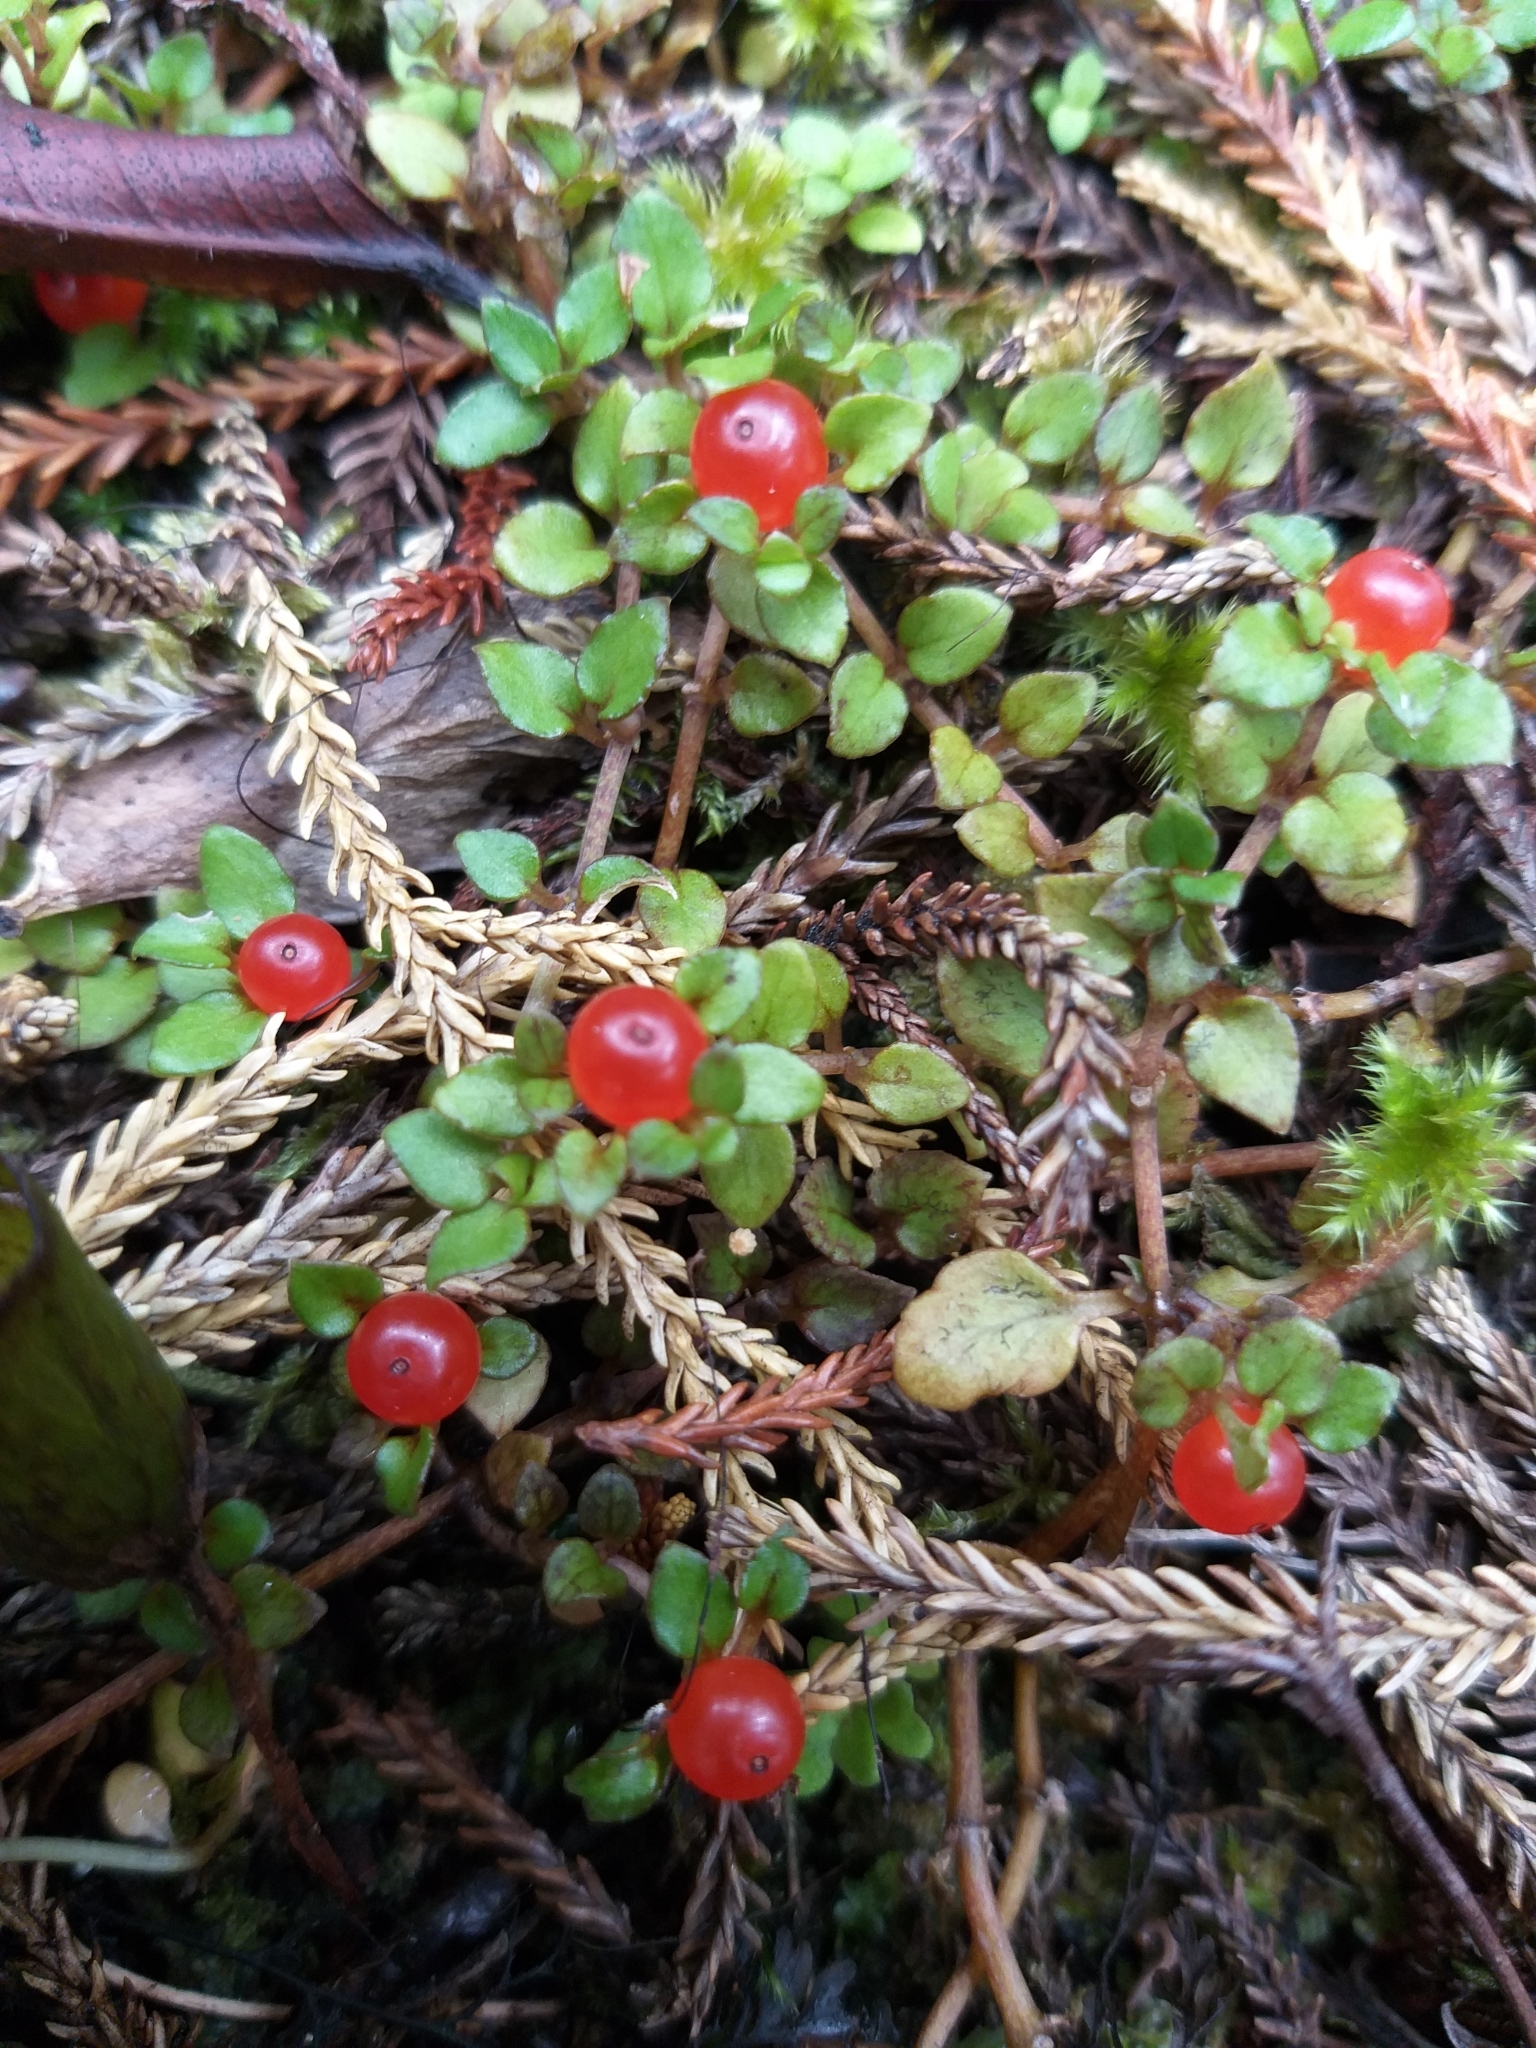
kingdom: Plantae
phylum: Tracheophyta
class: Magnoliopsida
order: Gentianales
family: Rubiaceae
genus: Nertera
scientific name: Nertera granadensis
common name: Beadplant
